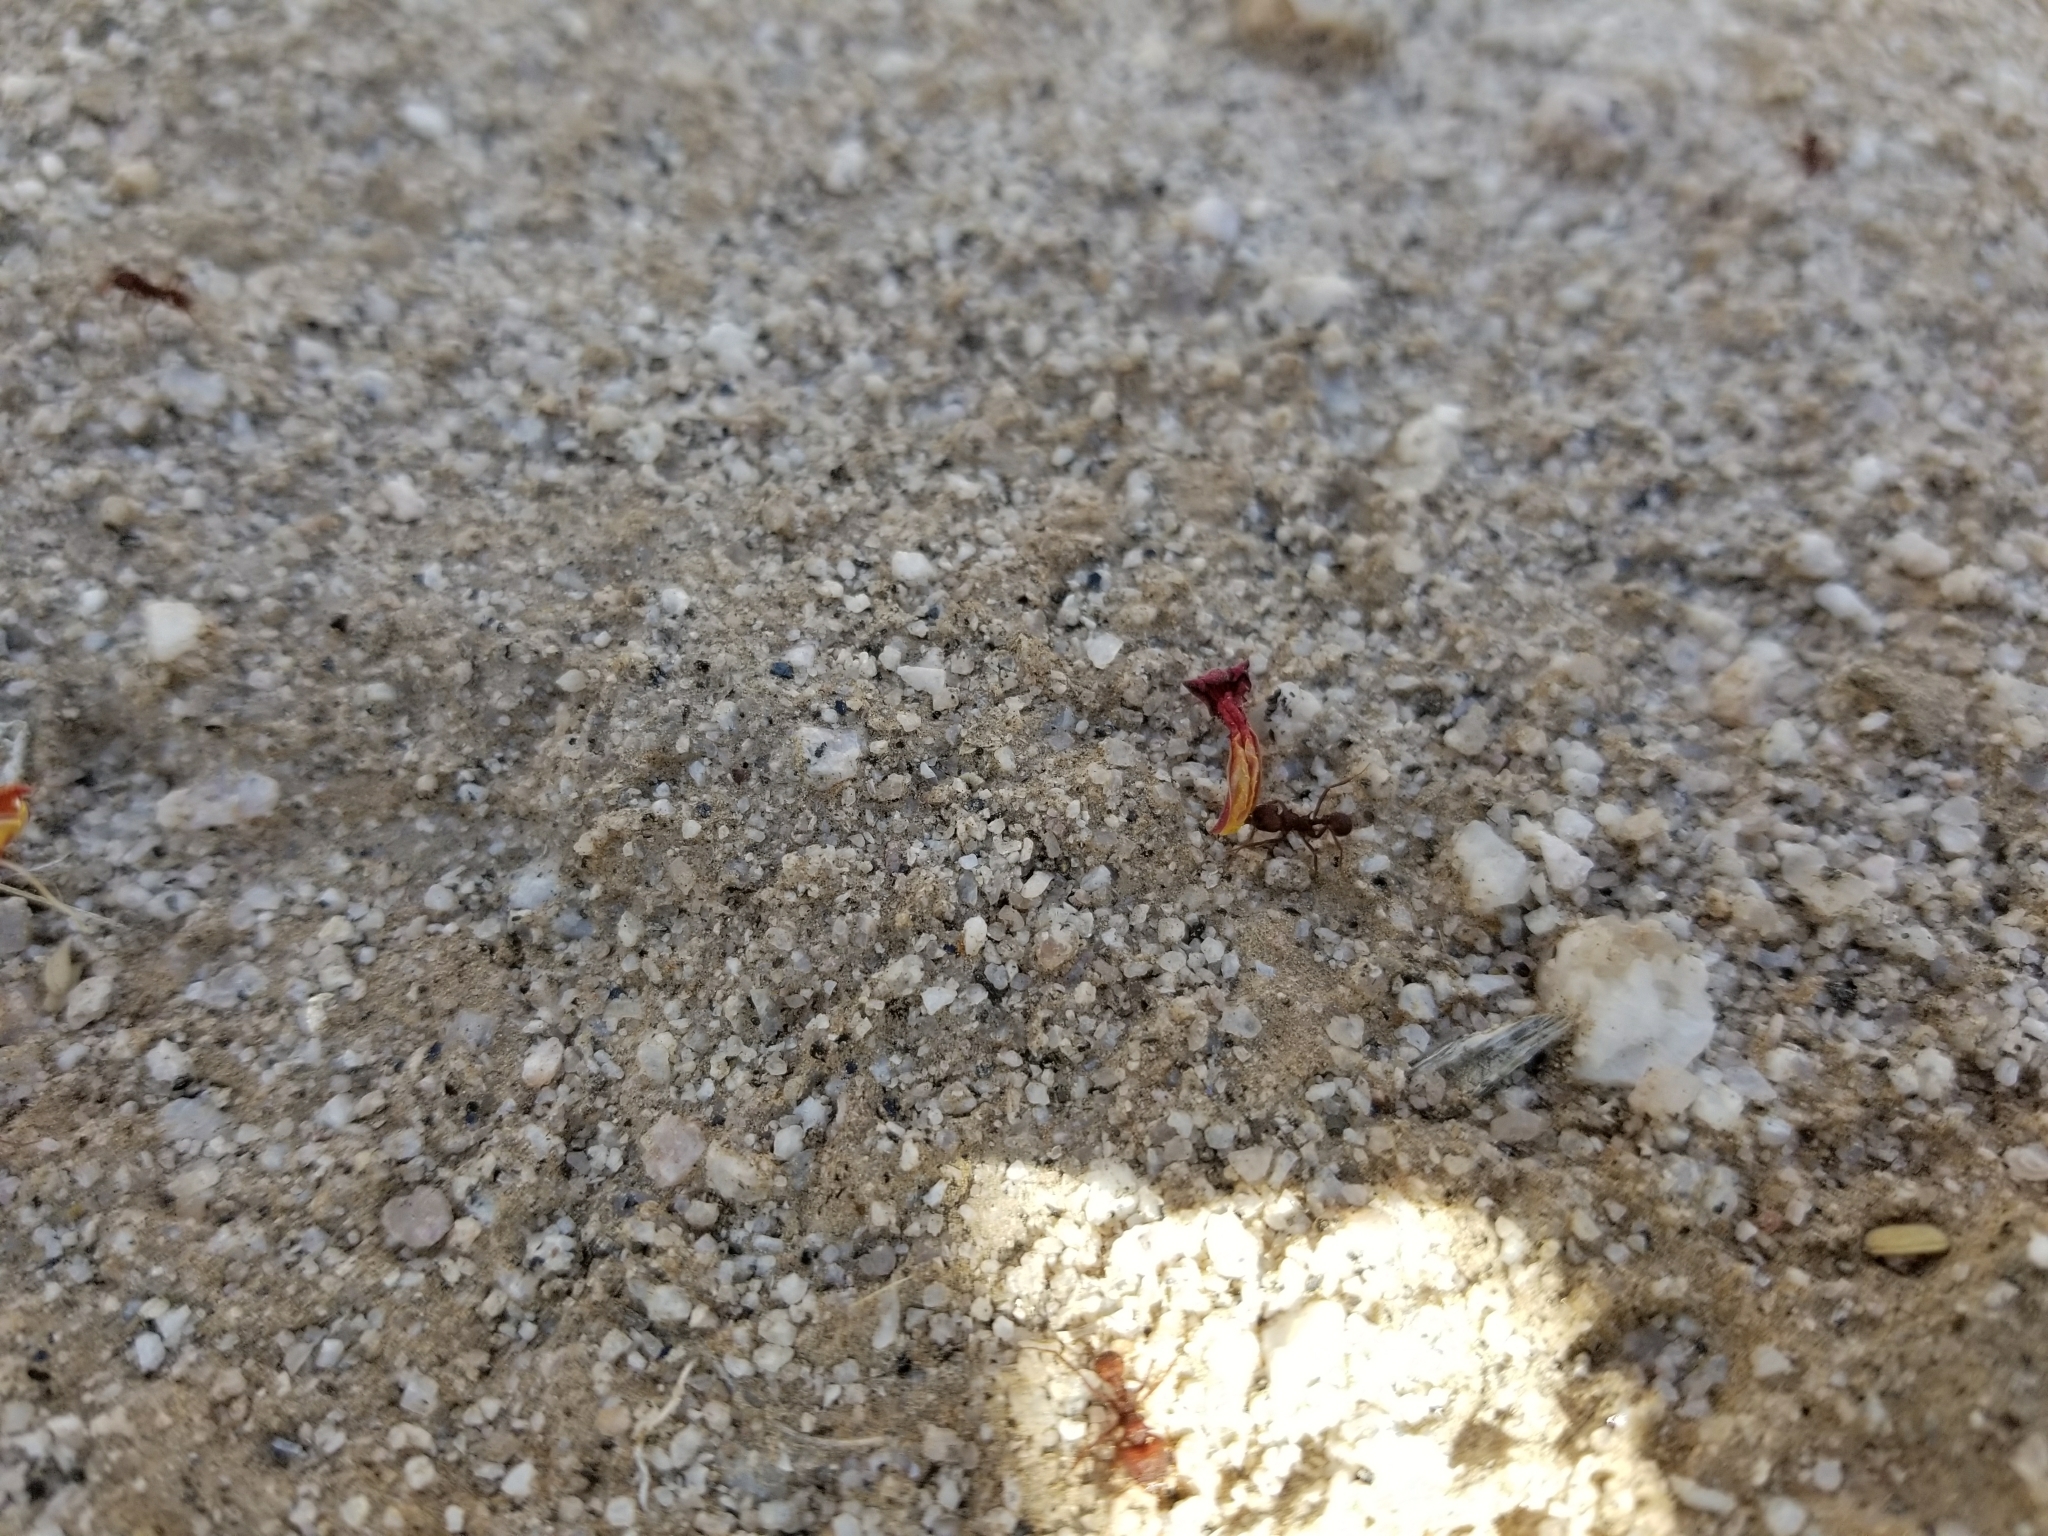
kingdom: Animalia
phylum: Arthropoda
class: Insecta
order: Hymenoptera
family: Formicidae
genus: Acromyrmex
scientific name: Acromyrmex versicolor
